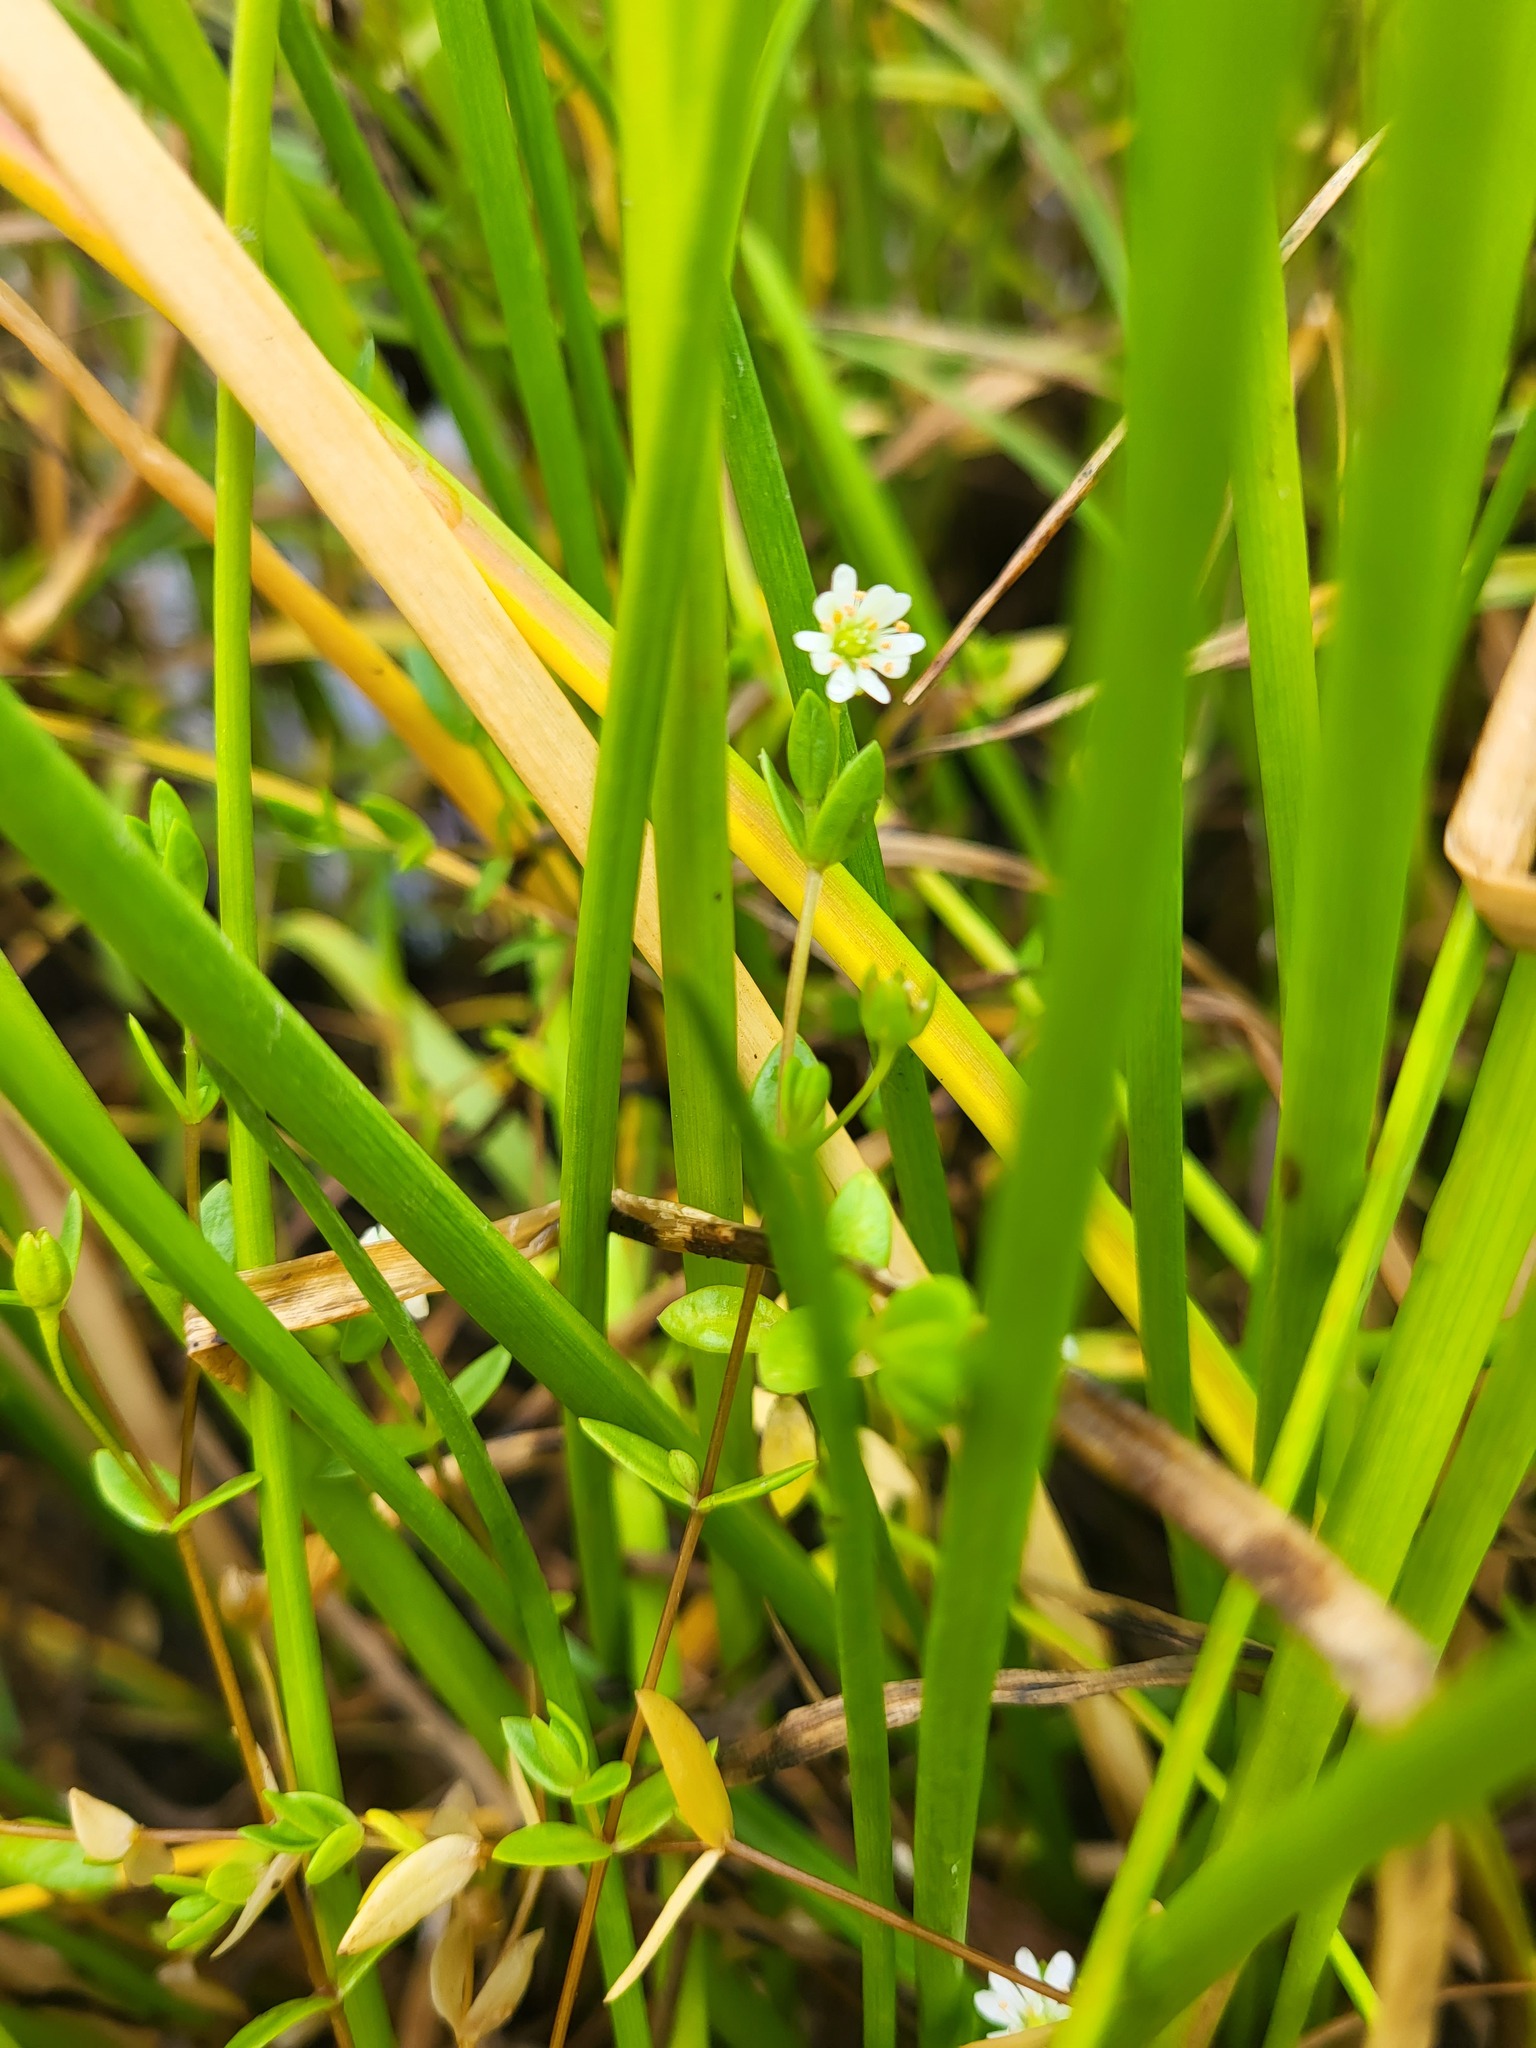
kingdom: Plantae
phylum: Tracheophyta
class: Magnoliopsida
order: Caryophyllales
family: Caryophyllaceae
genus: Stellaria
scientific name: Stellaria humifusa
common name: Creeping starwort
